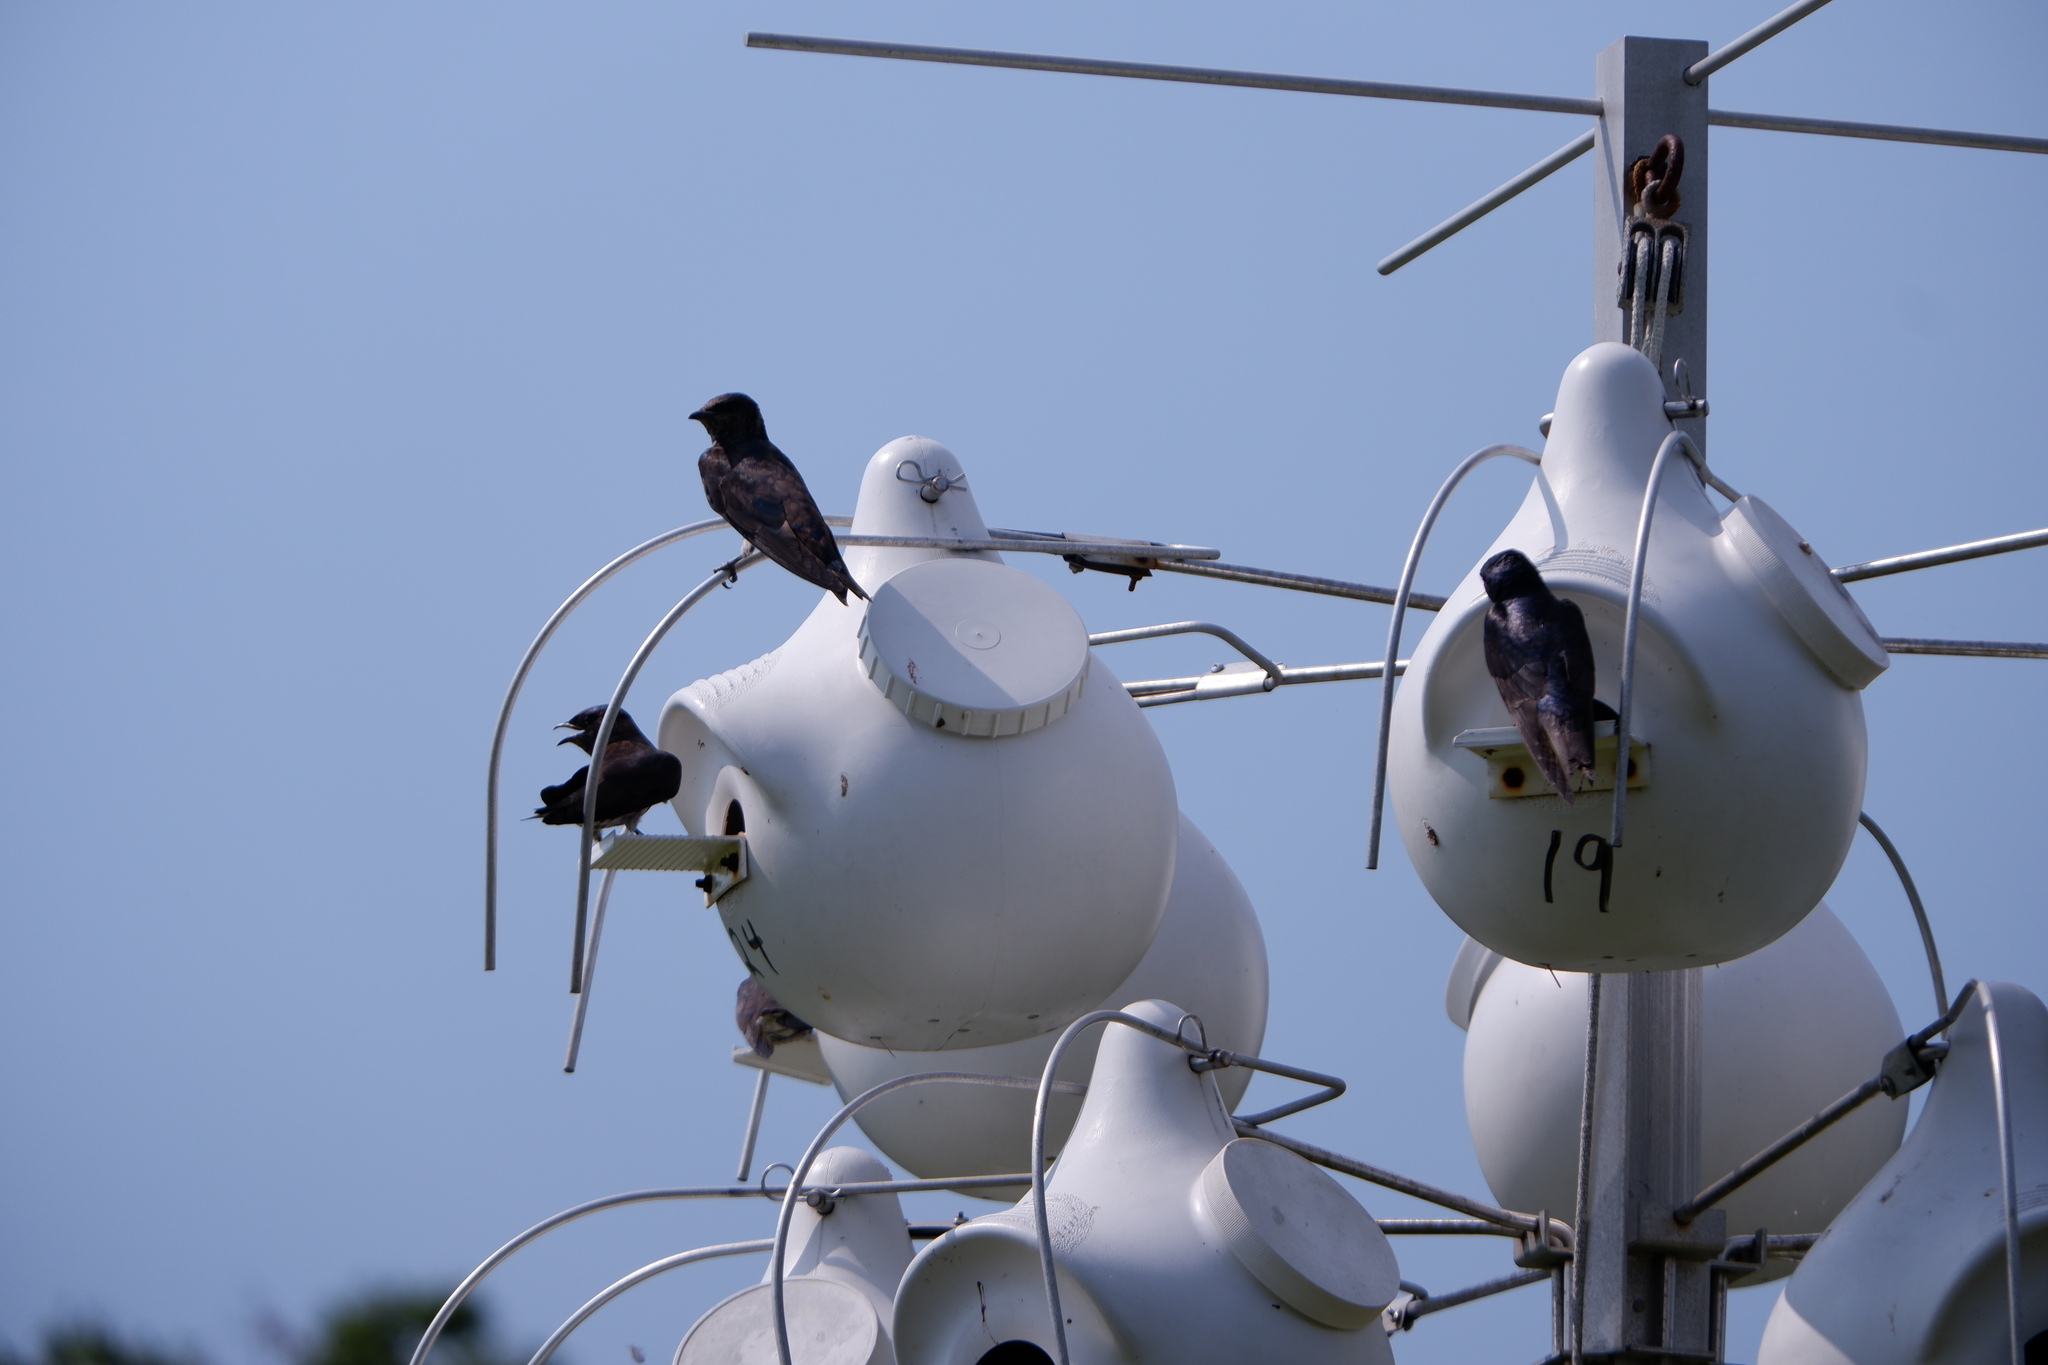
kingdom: Animalia
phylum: Chordata
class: Aves
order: Passeriformes
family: Hirundinidae
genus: Progne
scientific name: Progne subis
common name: Purple martin
